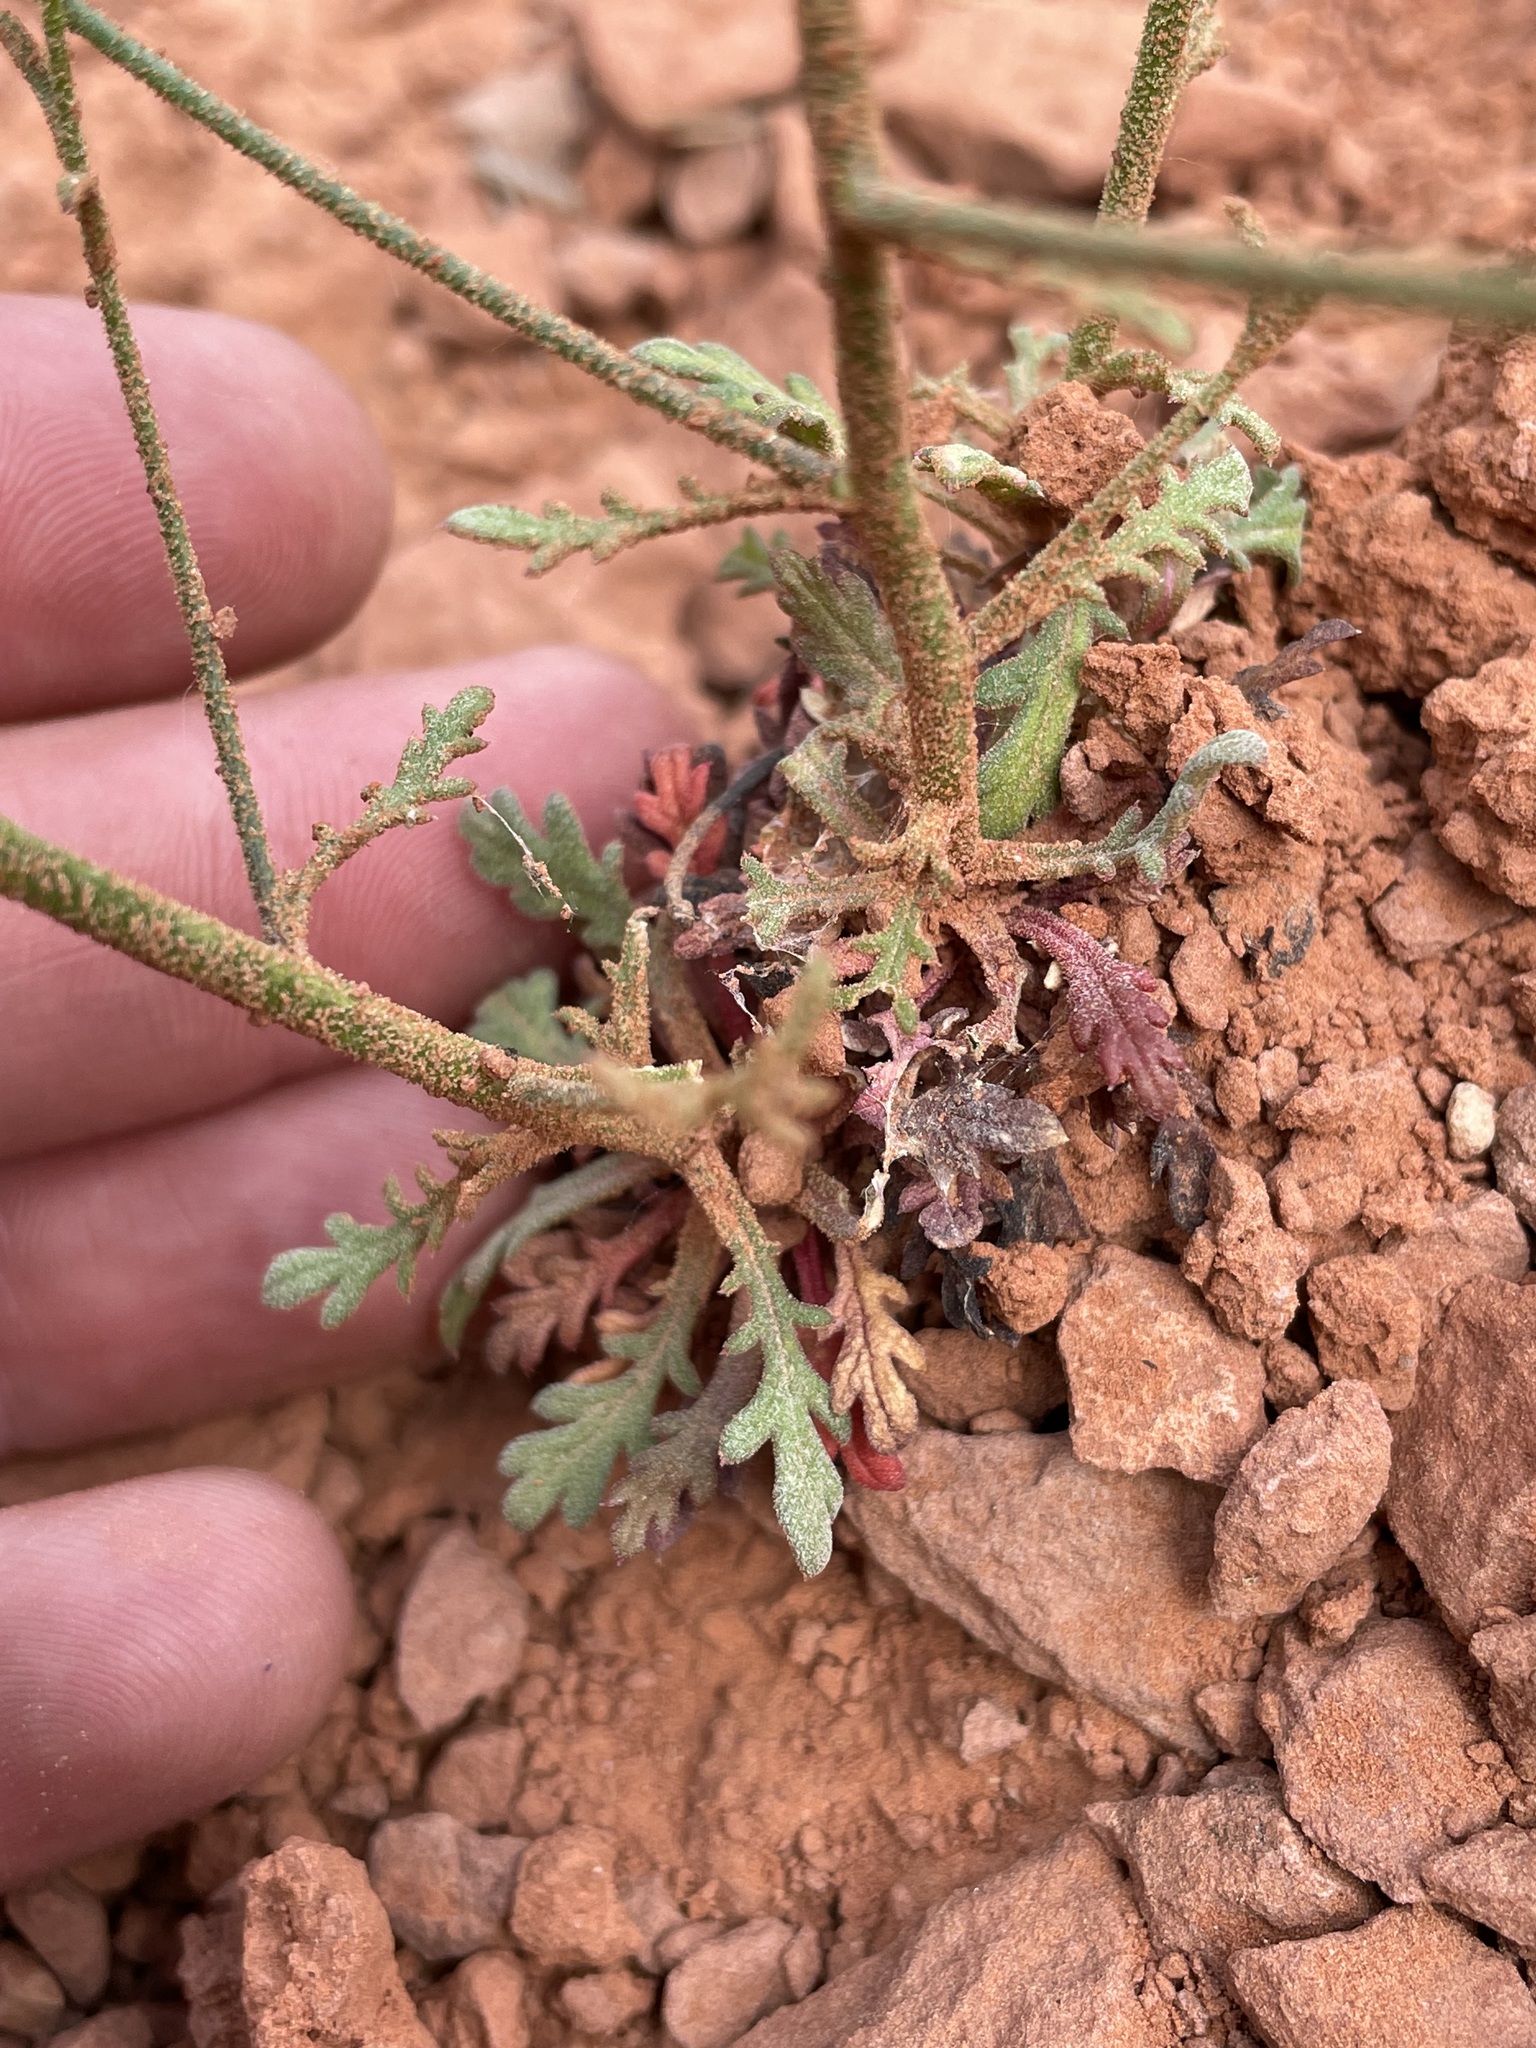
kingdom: Plantae
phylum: Tracheophyta
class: Magnoliopsida
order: Ericales
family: Polemoniaceae
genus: Aliciella
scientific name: Aliciella haydenii
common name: San juan gilia
